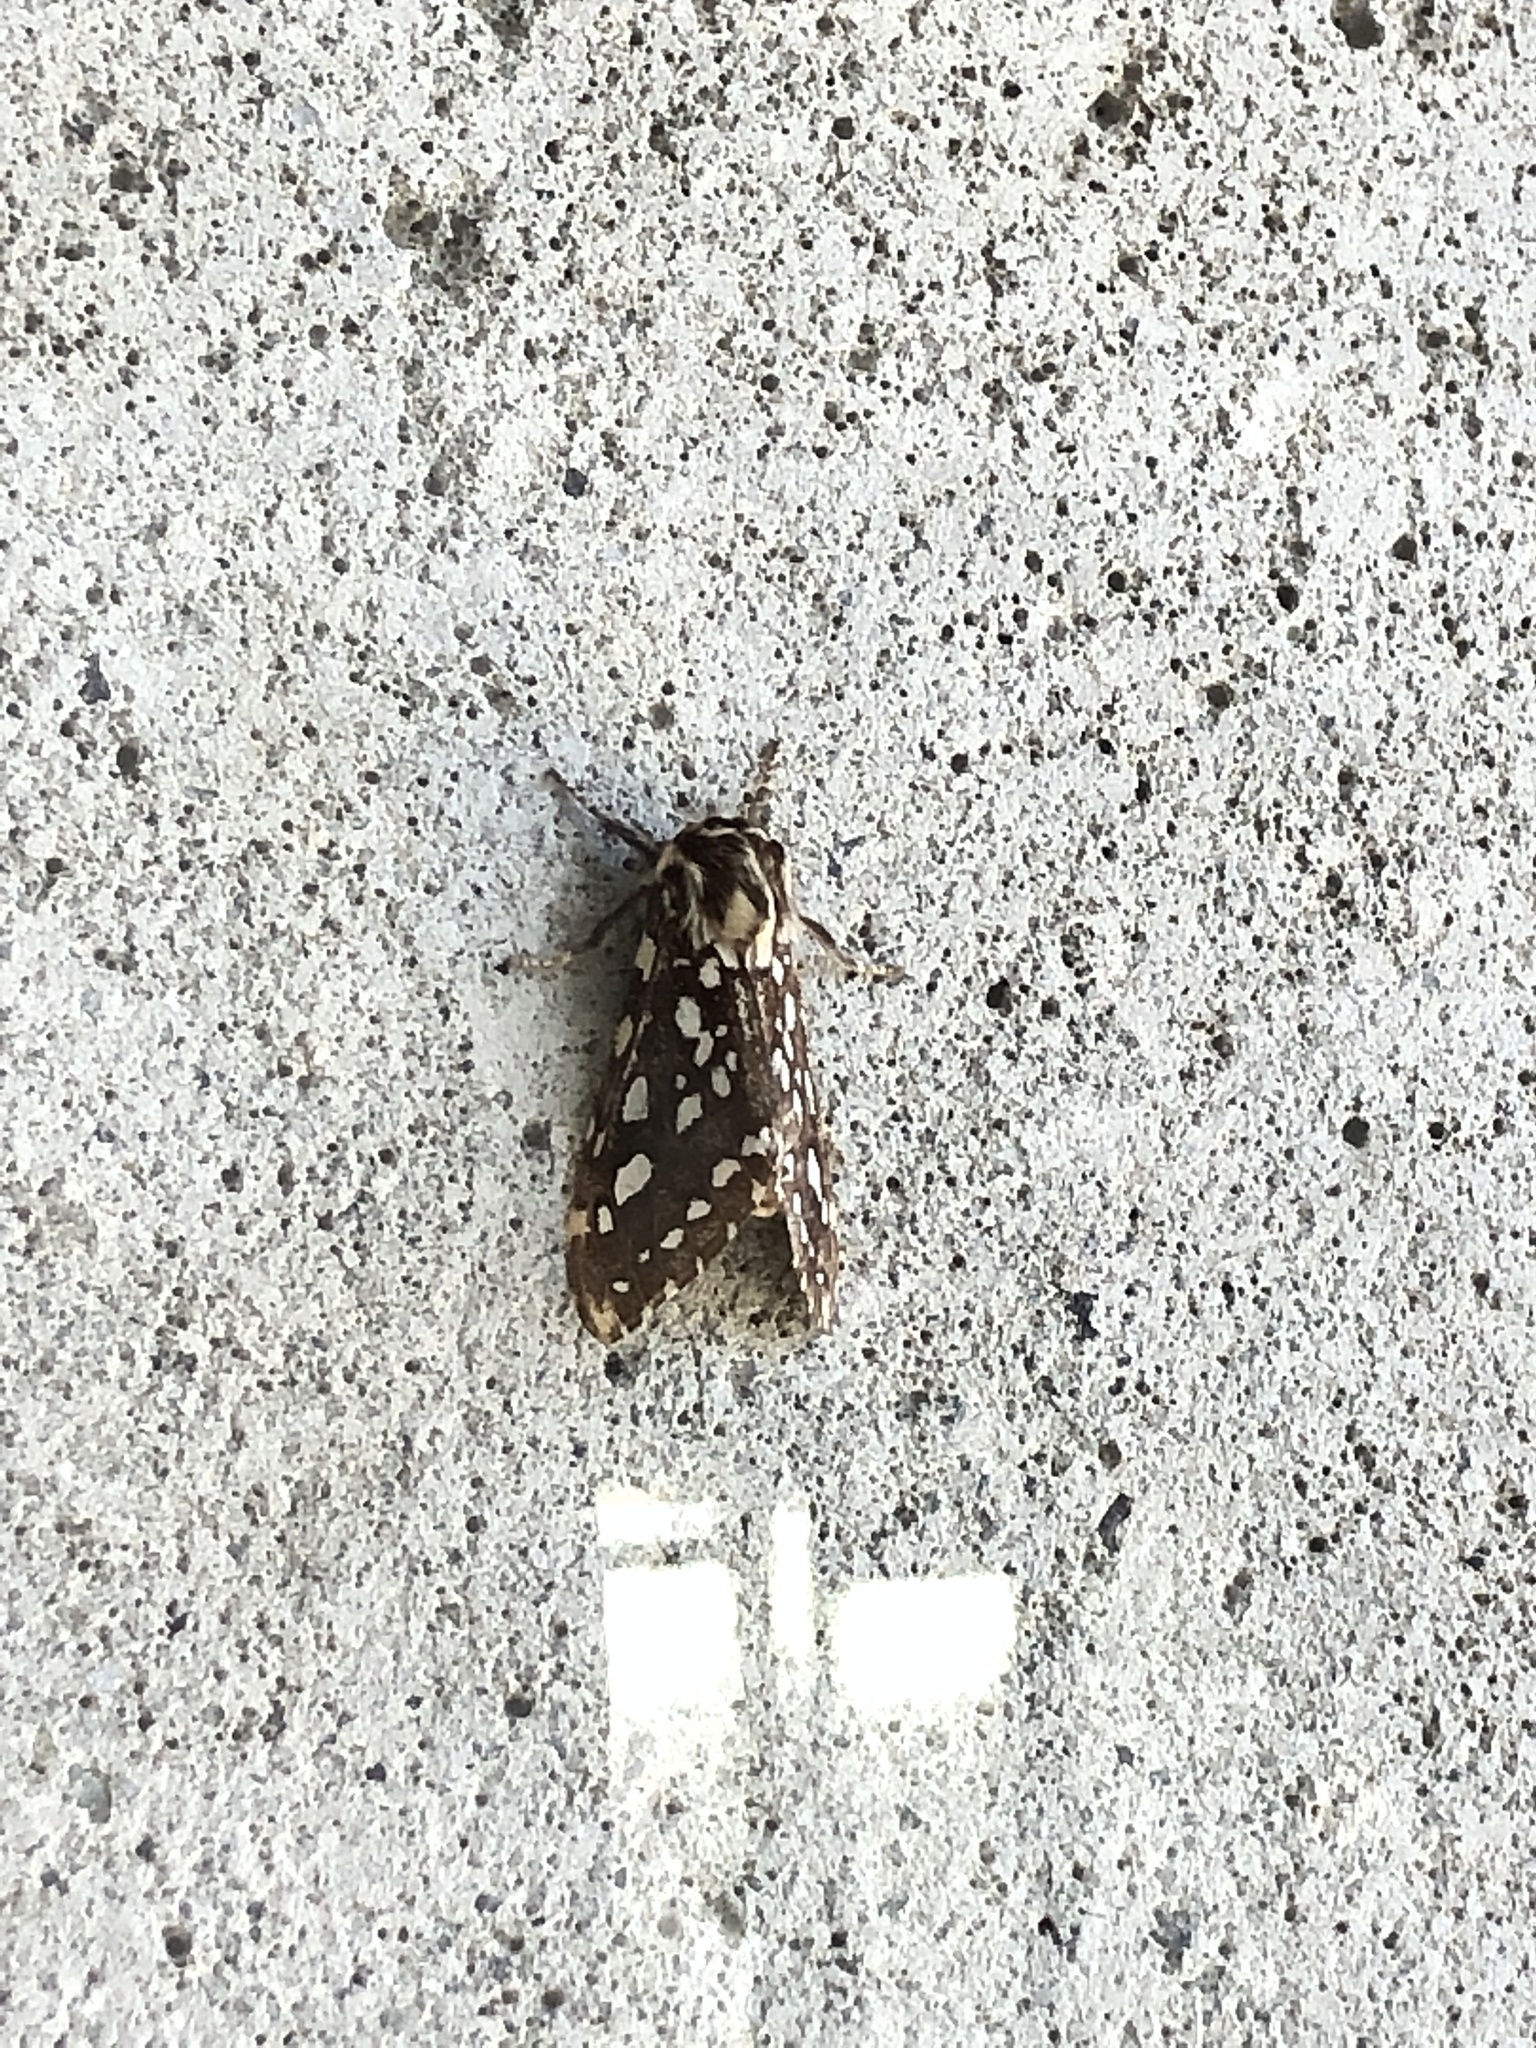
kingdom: Animalia
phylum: Arthropoda
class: Insecta
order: Lepidoptera
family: Erebidae
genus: Lophocampa
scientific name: Lophocampa argentata
